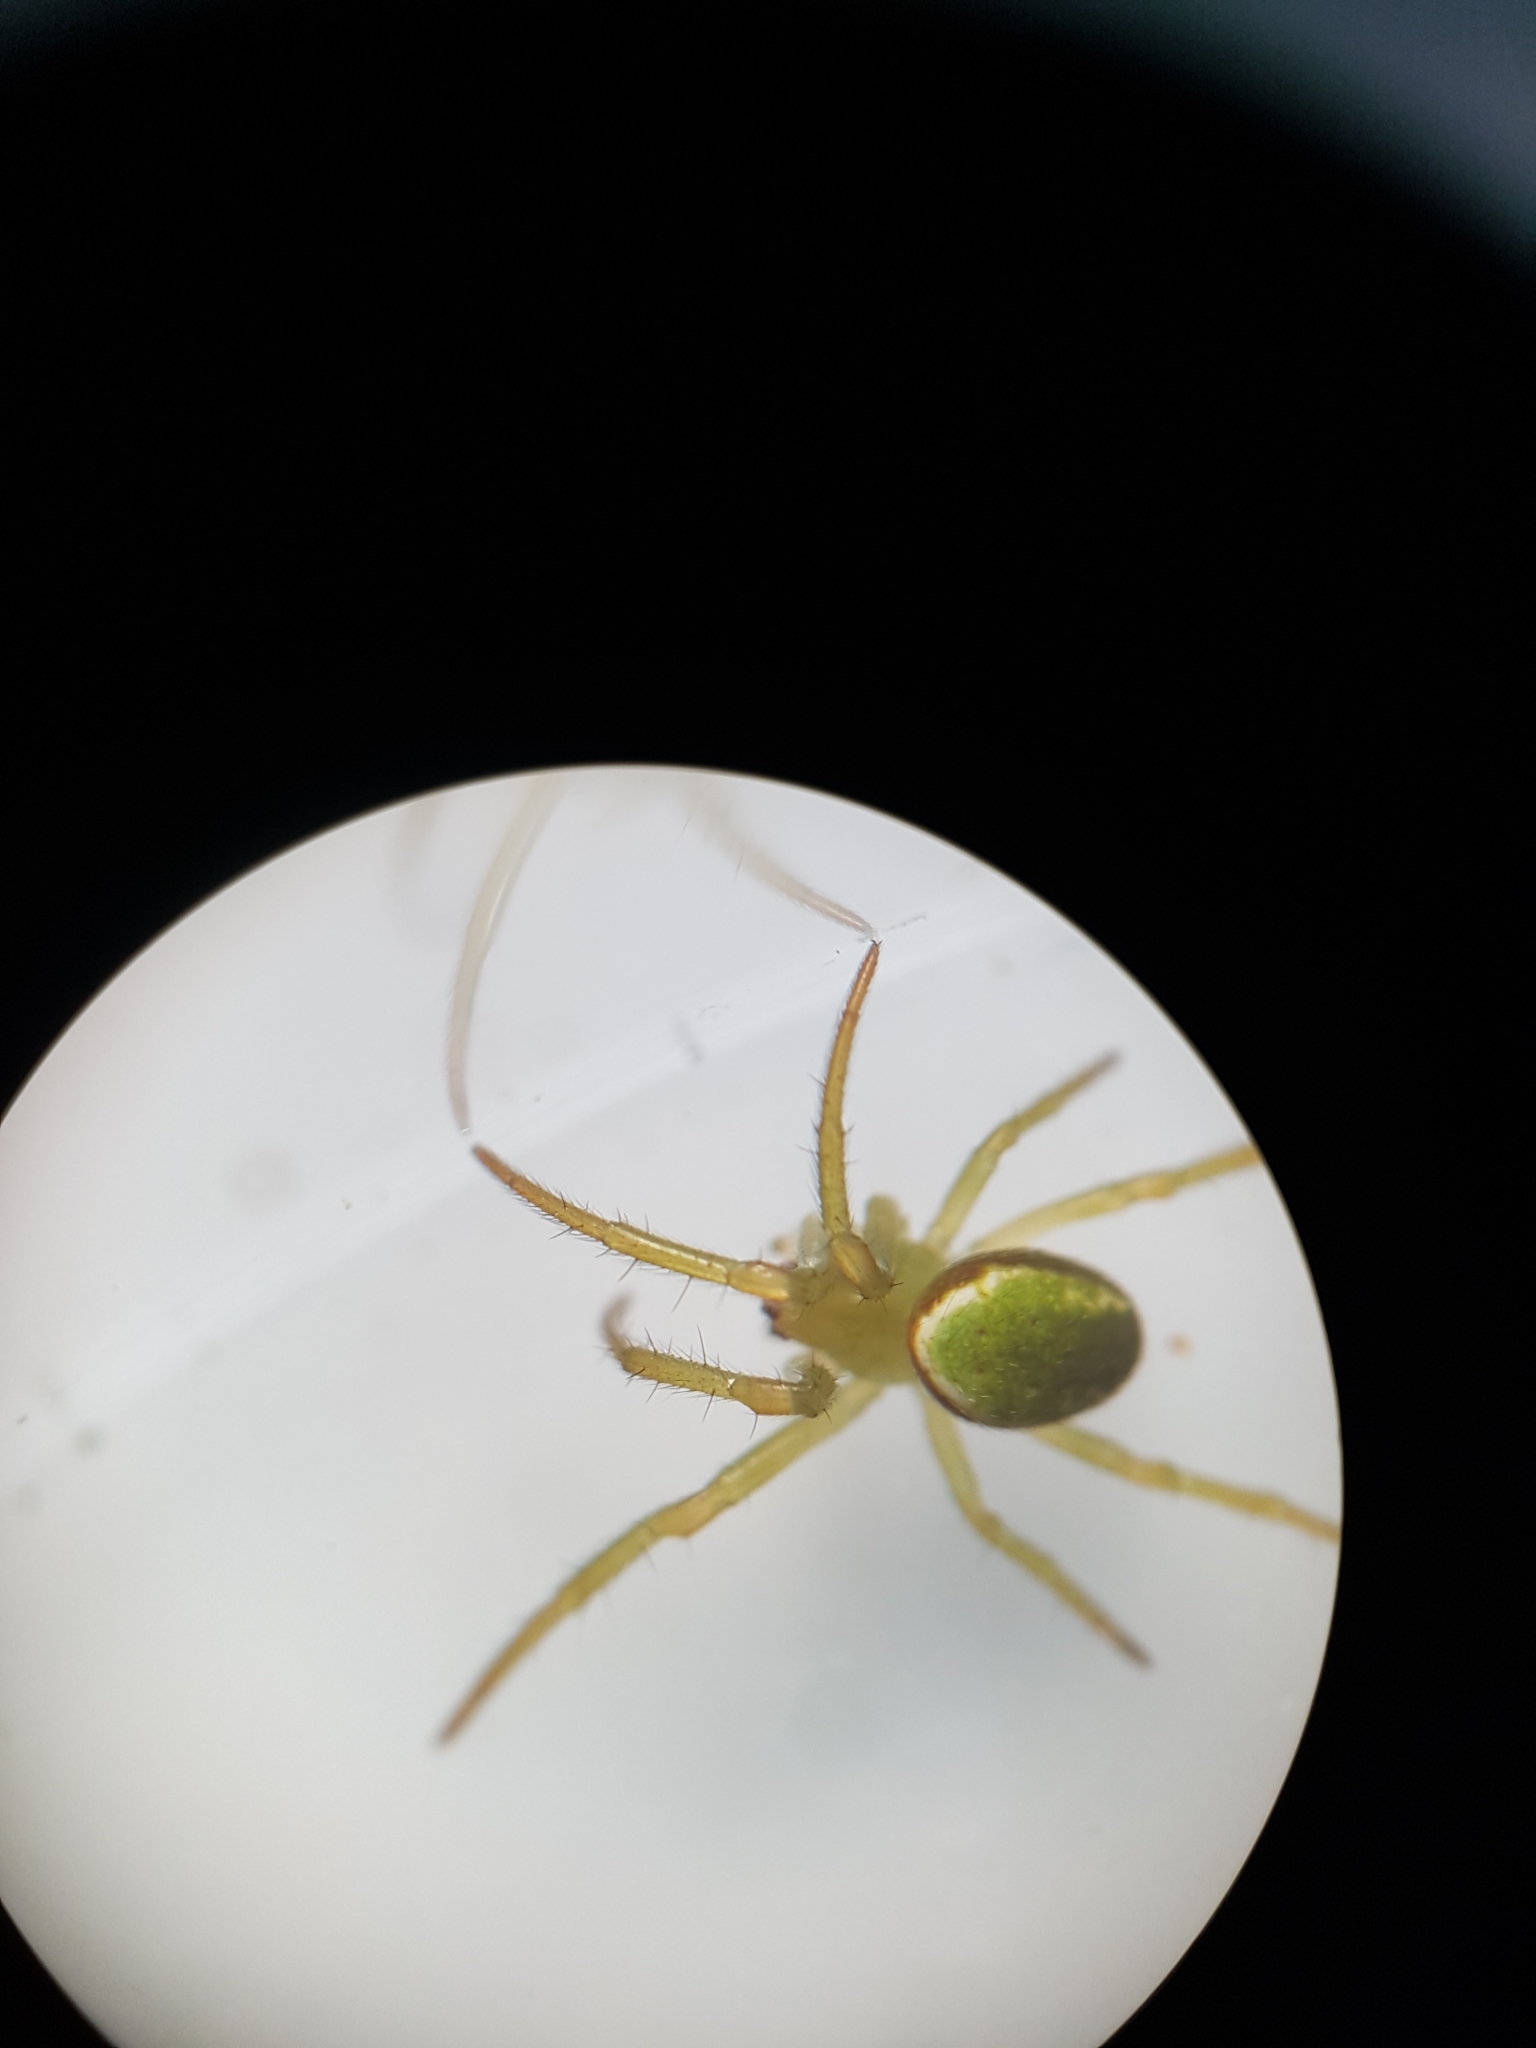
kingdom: Animalia
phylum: Arthropoda
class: Arachnida
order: Araneae
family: Araneidae
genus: Colaranea
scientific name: Colaranea viriditas
